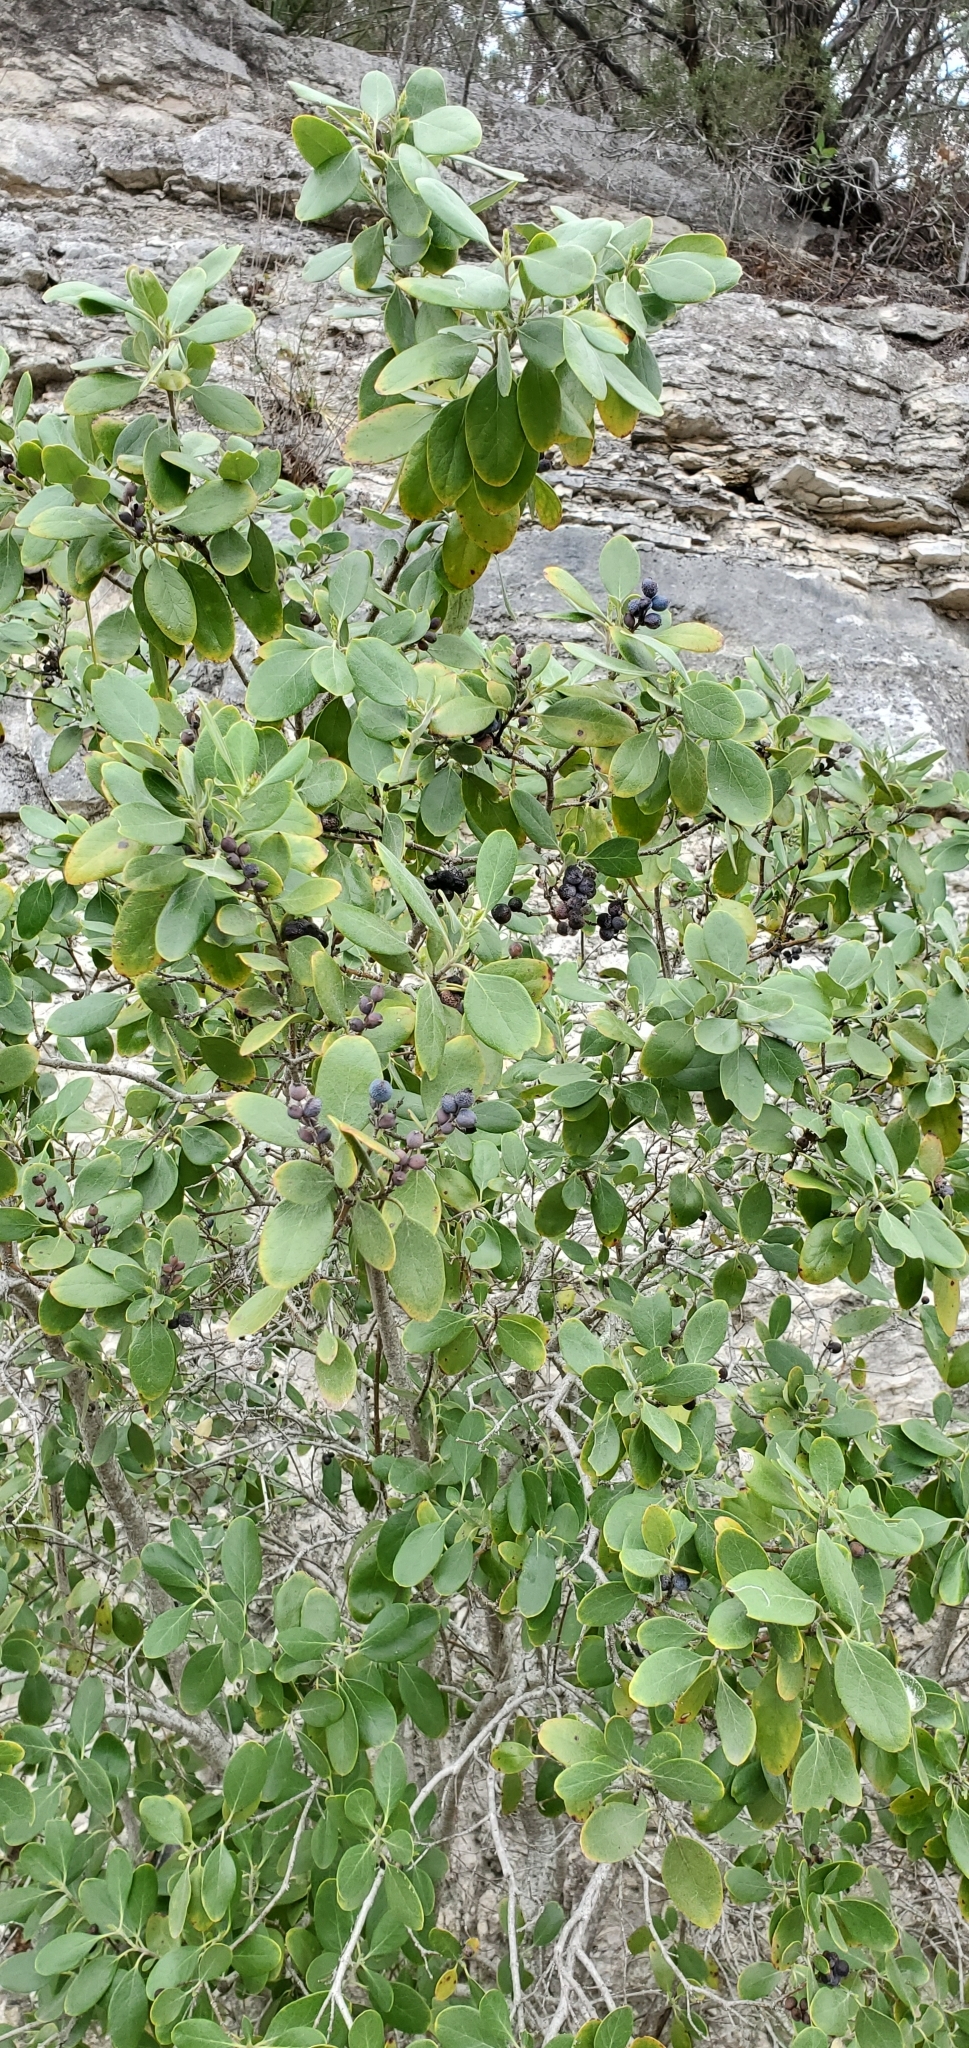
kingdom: Plantae
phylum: Tracheophyta
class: Magnoliopsida
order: Garryales
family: Garryaceae
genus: Garrya
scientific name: Garrya lindheimeri
